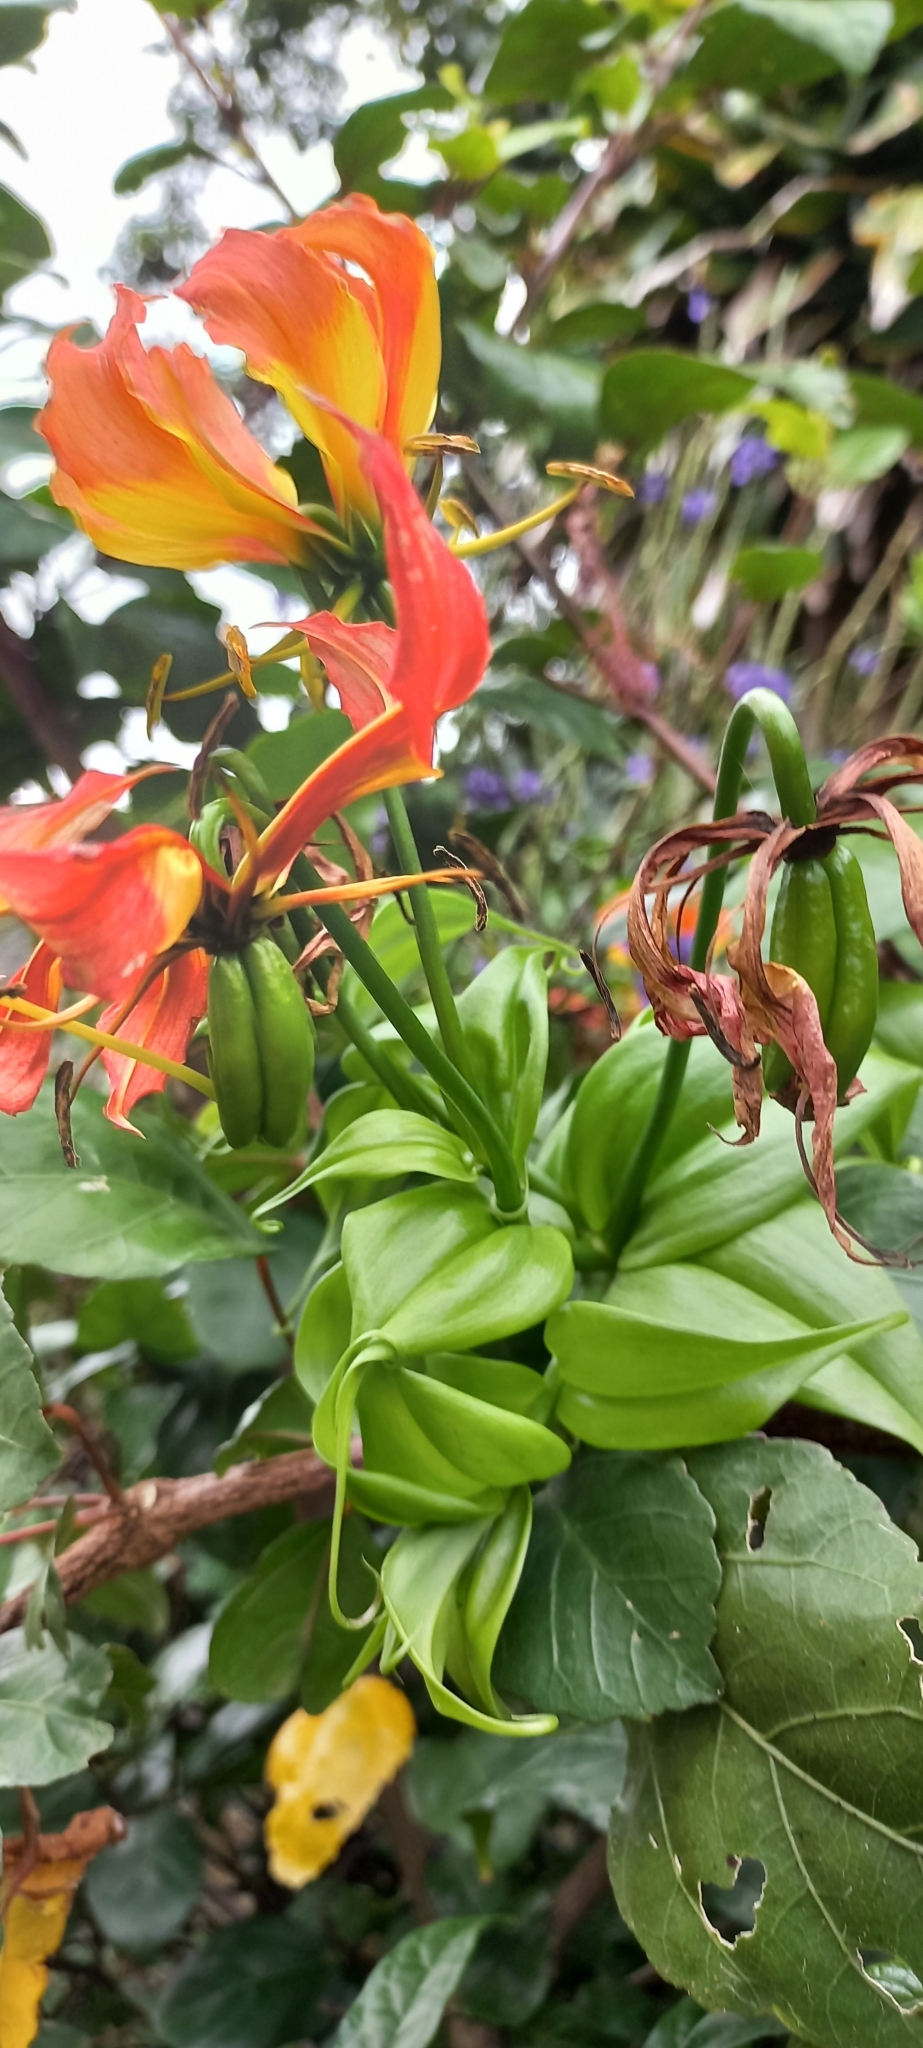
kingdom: Plantae
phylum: Tracheophyta
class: Liliopsida
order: Liliales
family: Colchicaceae
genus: Gloriosa
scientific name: Gloriosa superba
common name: Flame lily
